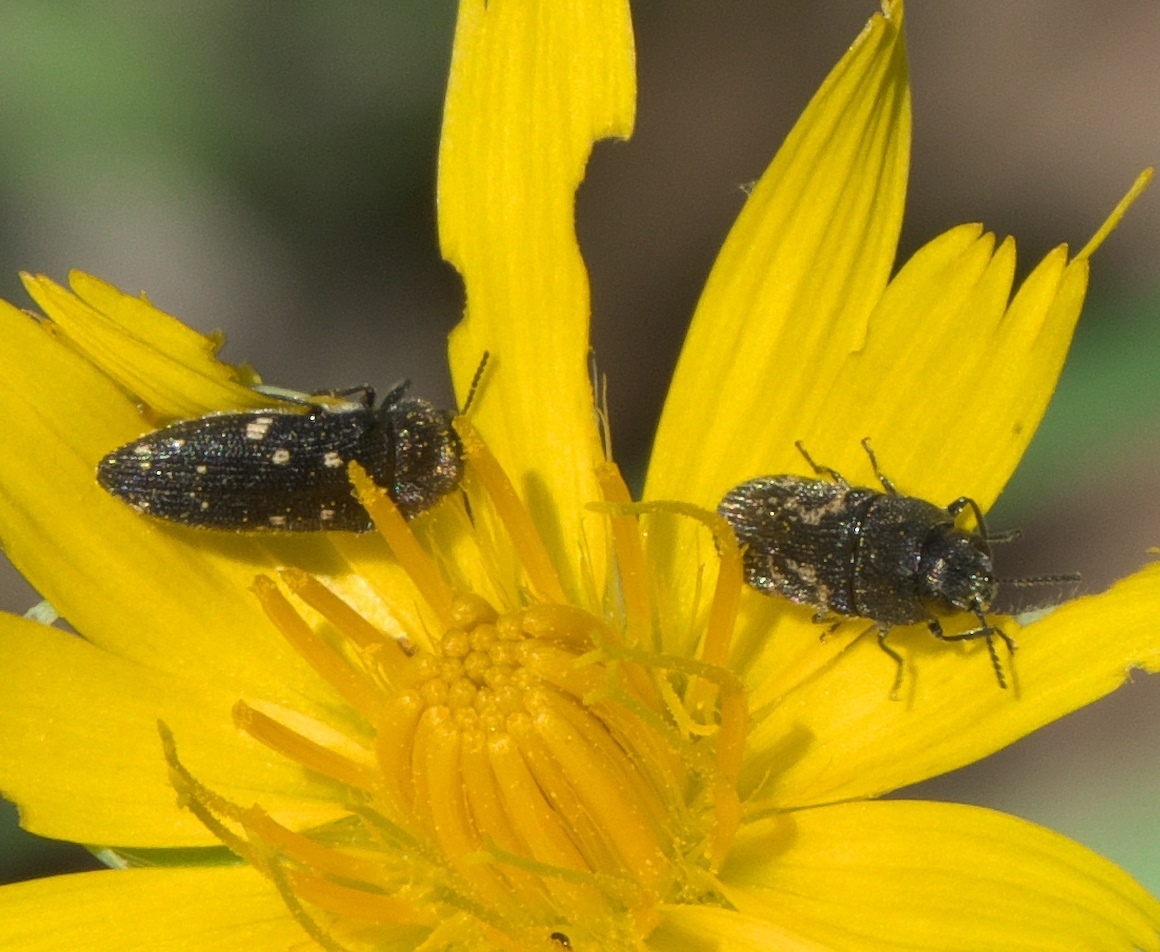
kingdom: Animalia
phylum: Arthropoda
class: Insecta
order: Coleoptera
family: Buprestidae
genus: Acmaeodera
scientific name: Acmaeodera neglecta
